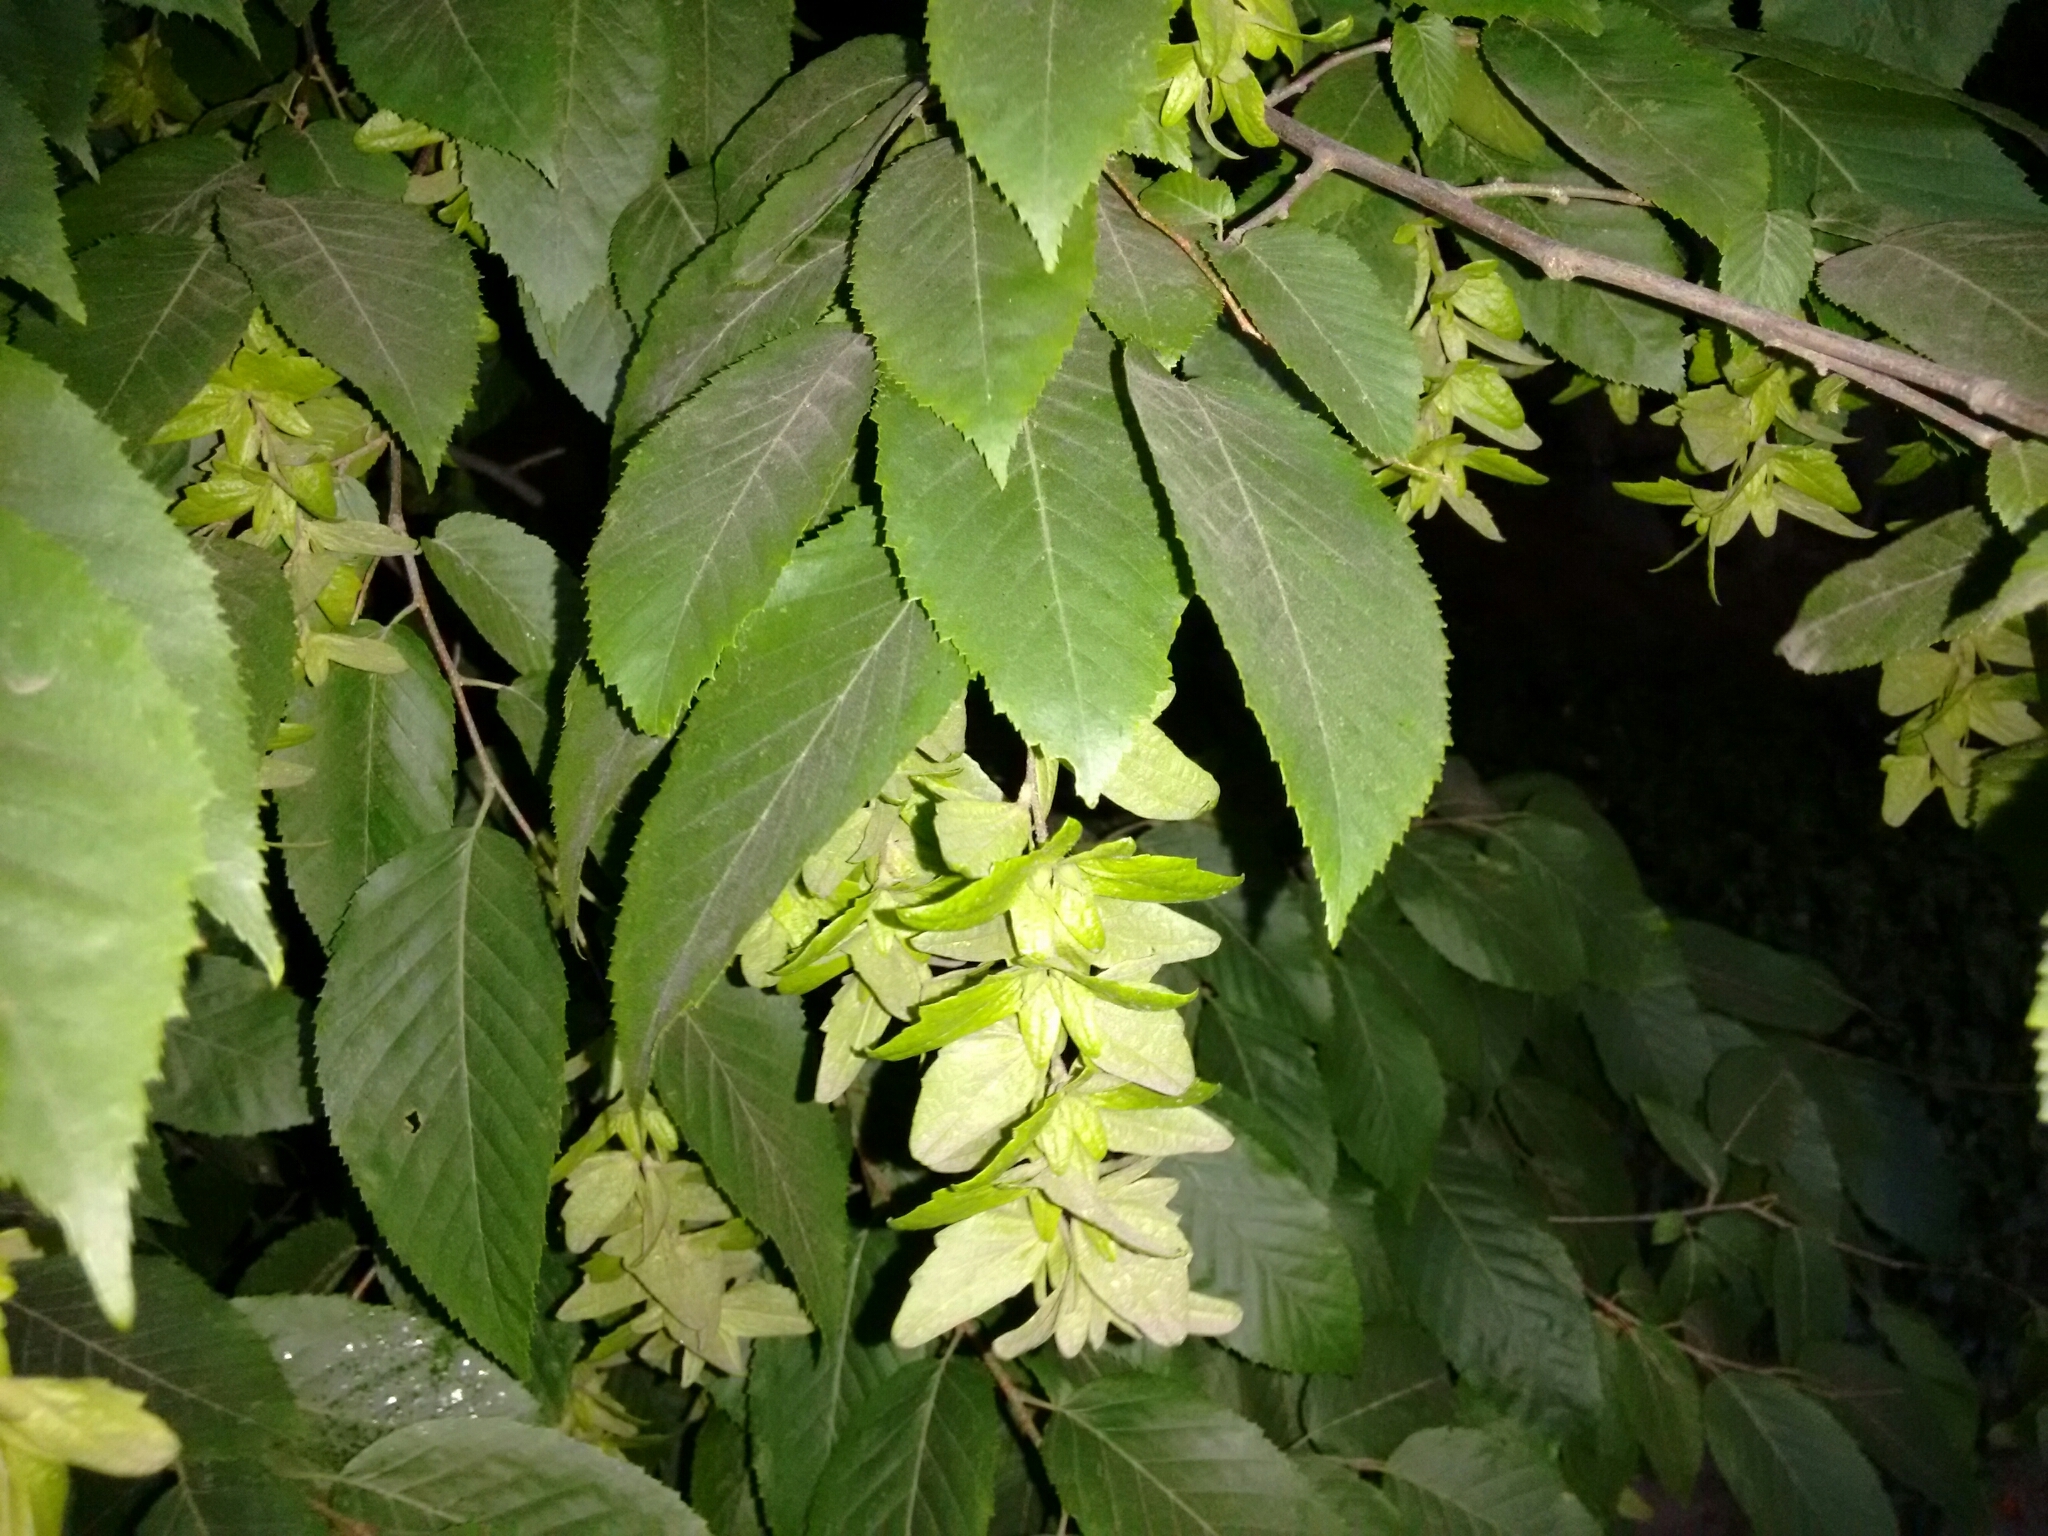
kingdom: Plantae
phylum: Tracheophyta
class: Magnoliopsida
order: Fagales
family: Betulaceae
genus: Carpinus
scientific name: Carpinus caroliniana
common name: American hornbeam
